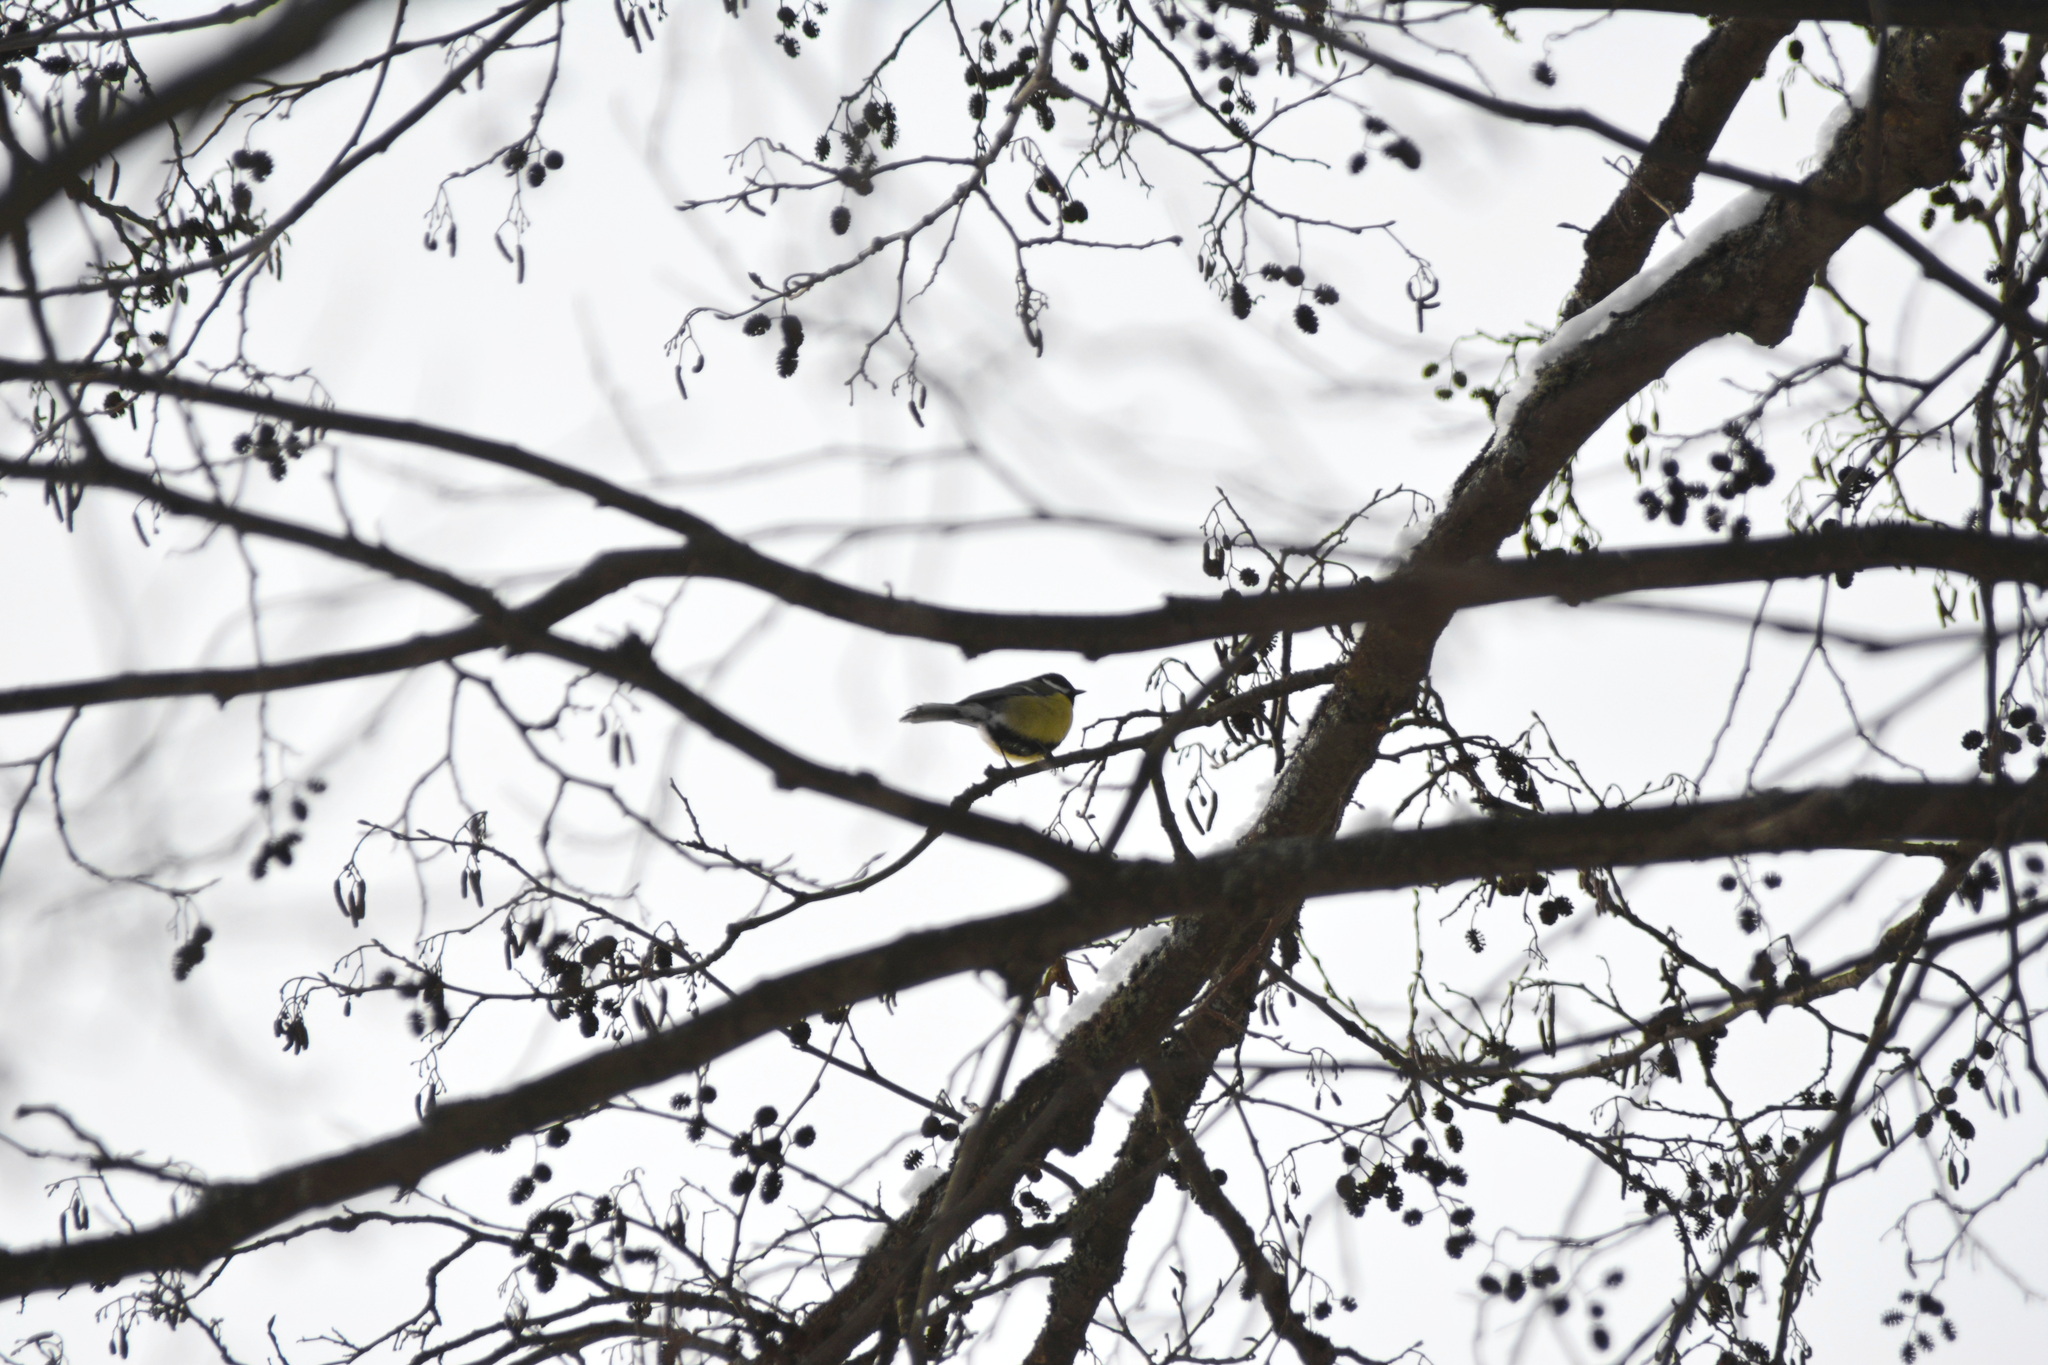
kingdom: Animalia
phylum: Chordata
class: Aves
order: Passeriformes
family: Paridae
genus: Parus
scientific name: Parus major
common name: Great tit
